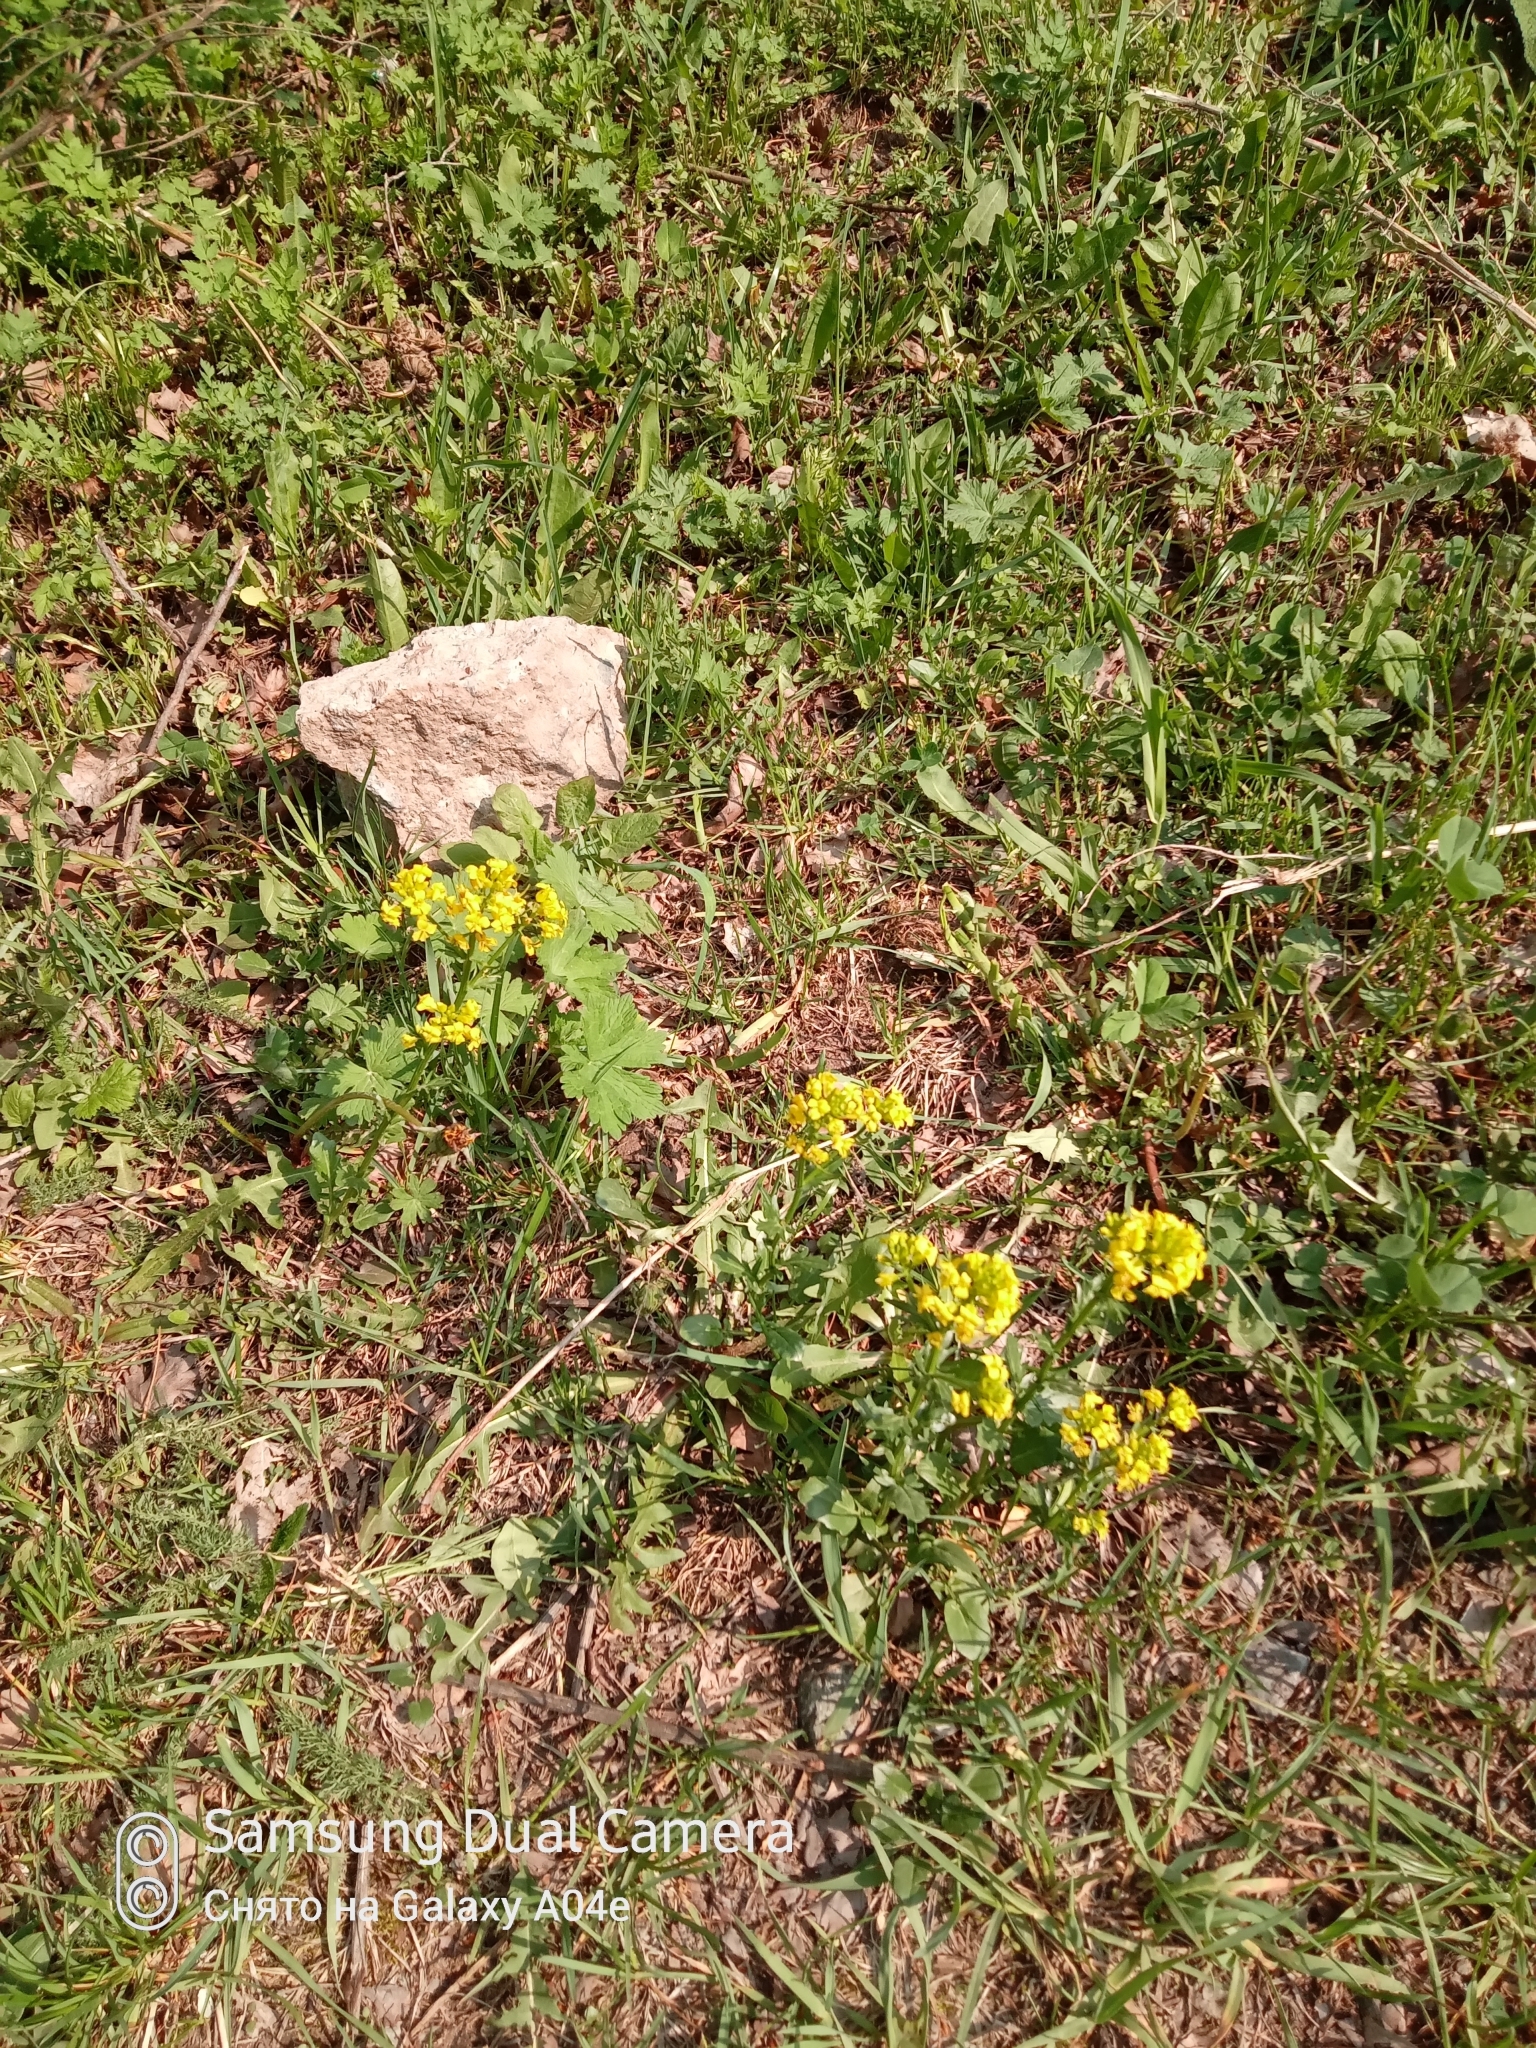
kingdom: Plantae
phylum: Tracheophyta
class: Magnoliopsida
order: Brassicales
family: Brassicaceae
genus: Barbarea
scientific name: Barbarea vulgaris
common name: Cressy-greens
